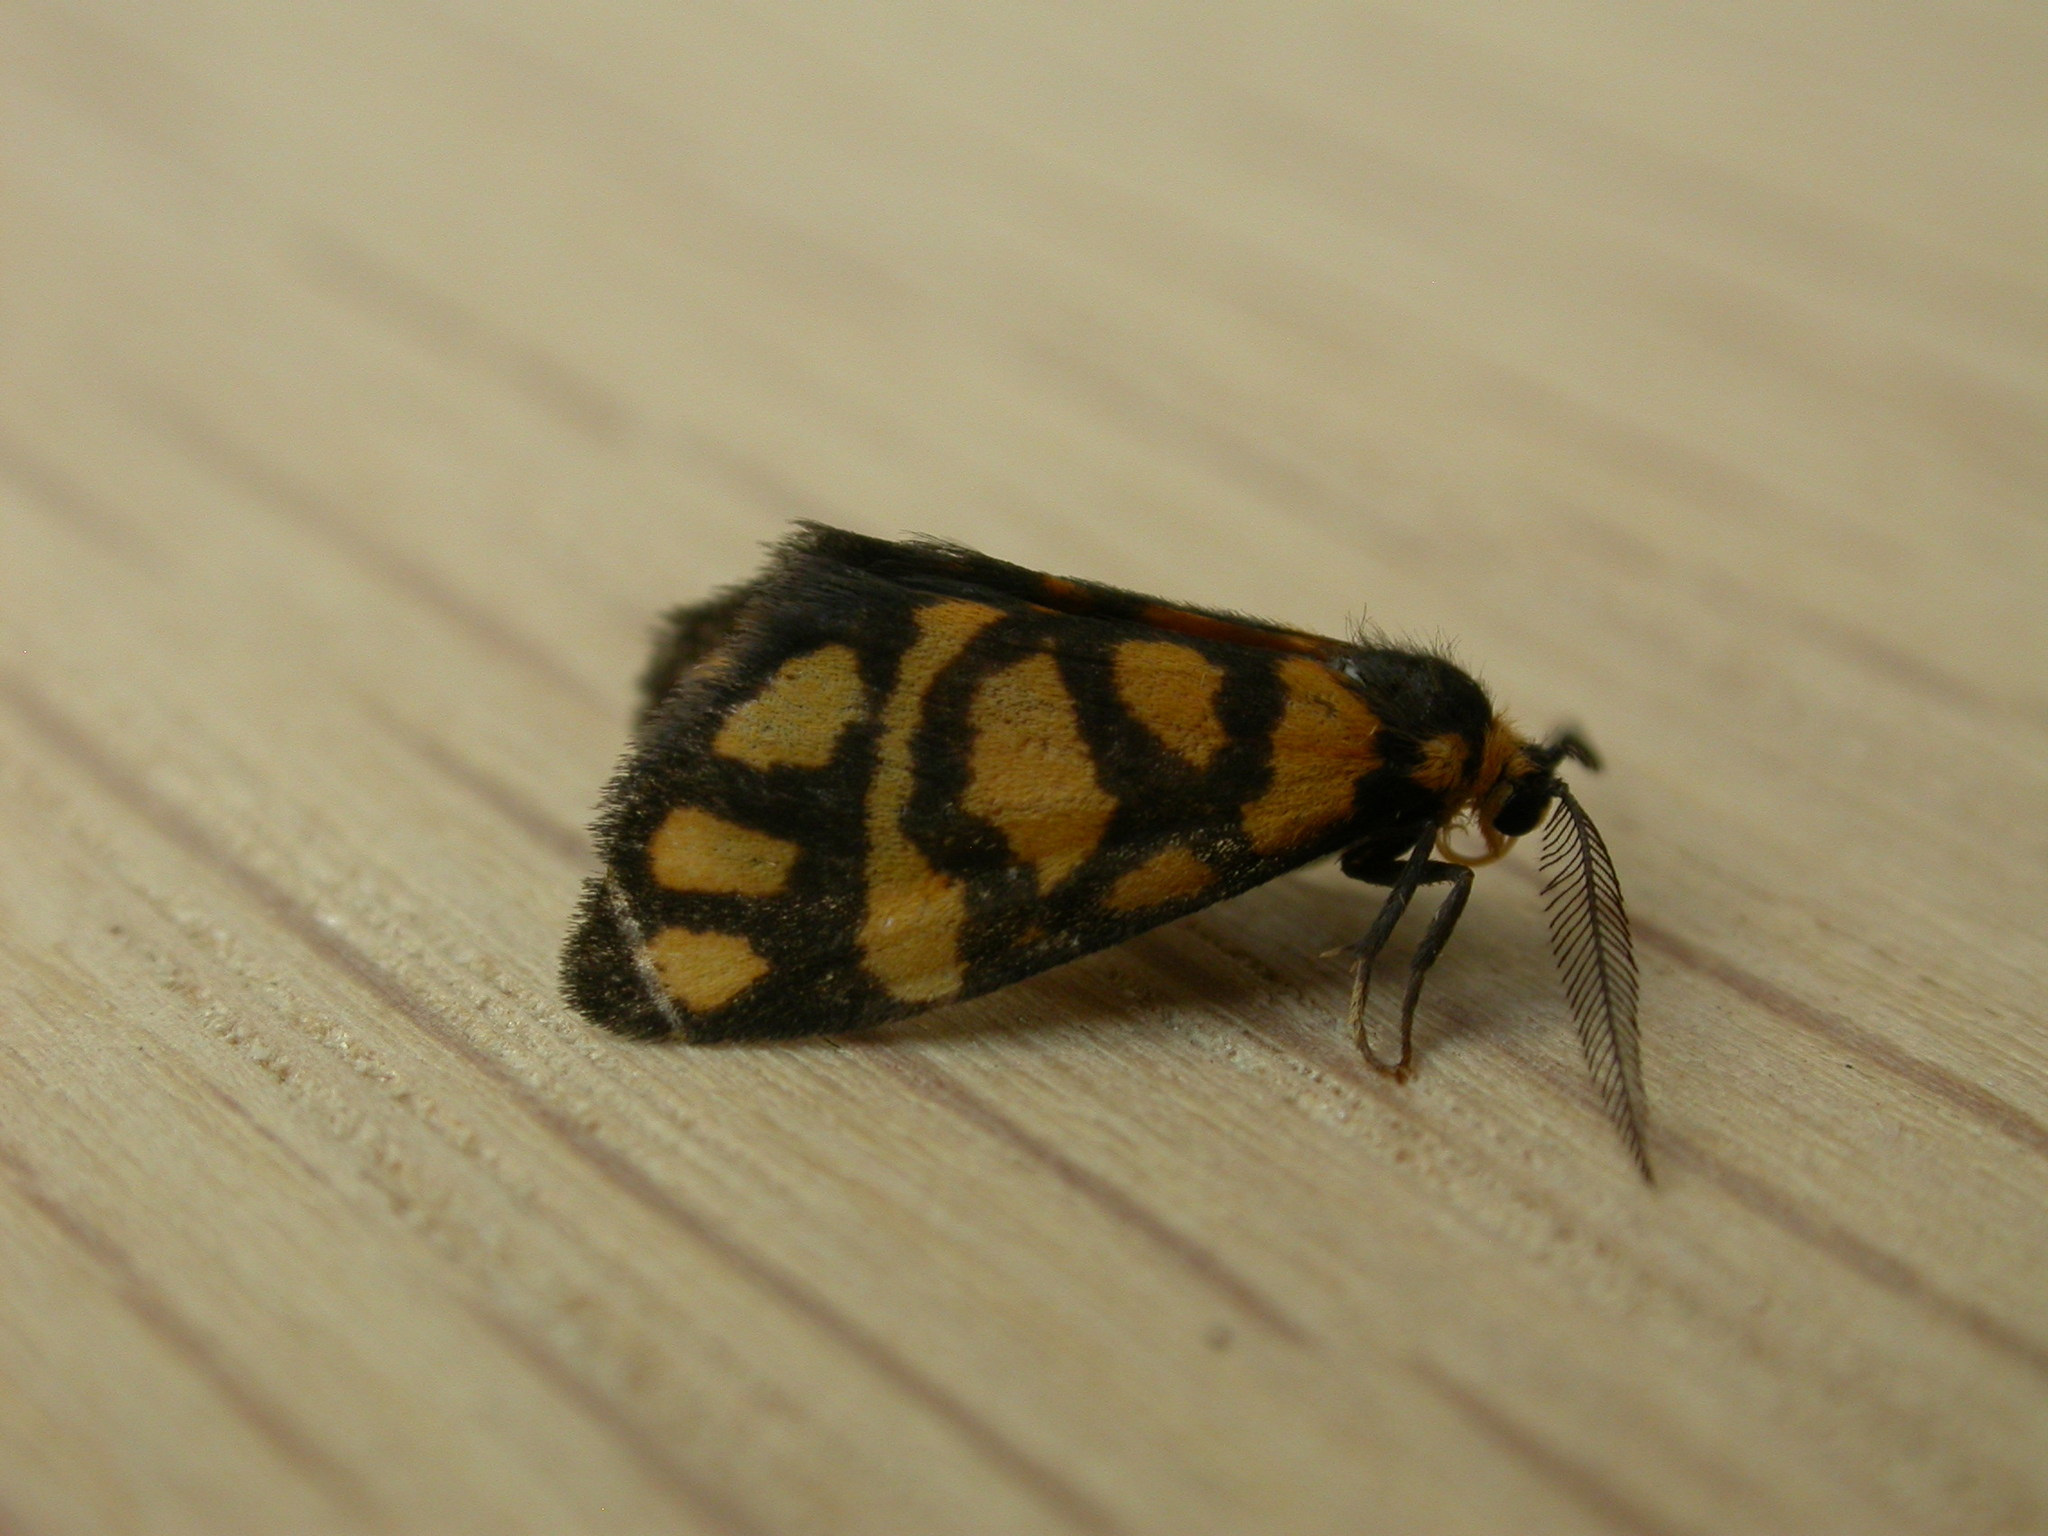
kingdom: Animalia
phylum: Arthropoda
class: Insecta
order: Lepidoptera
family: Erebidae
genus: Asura
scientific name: Asura lydia
